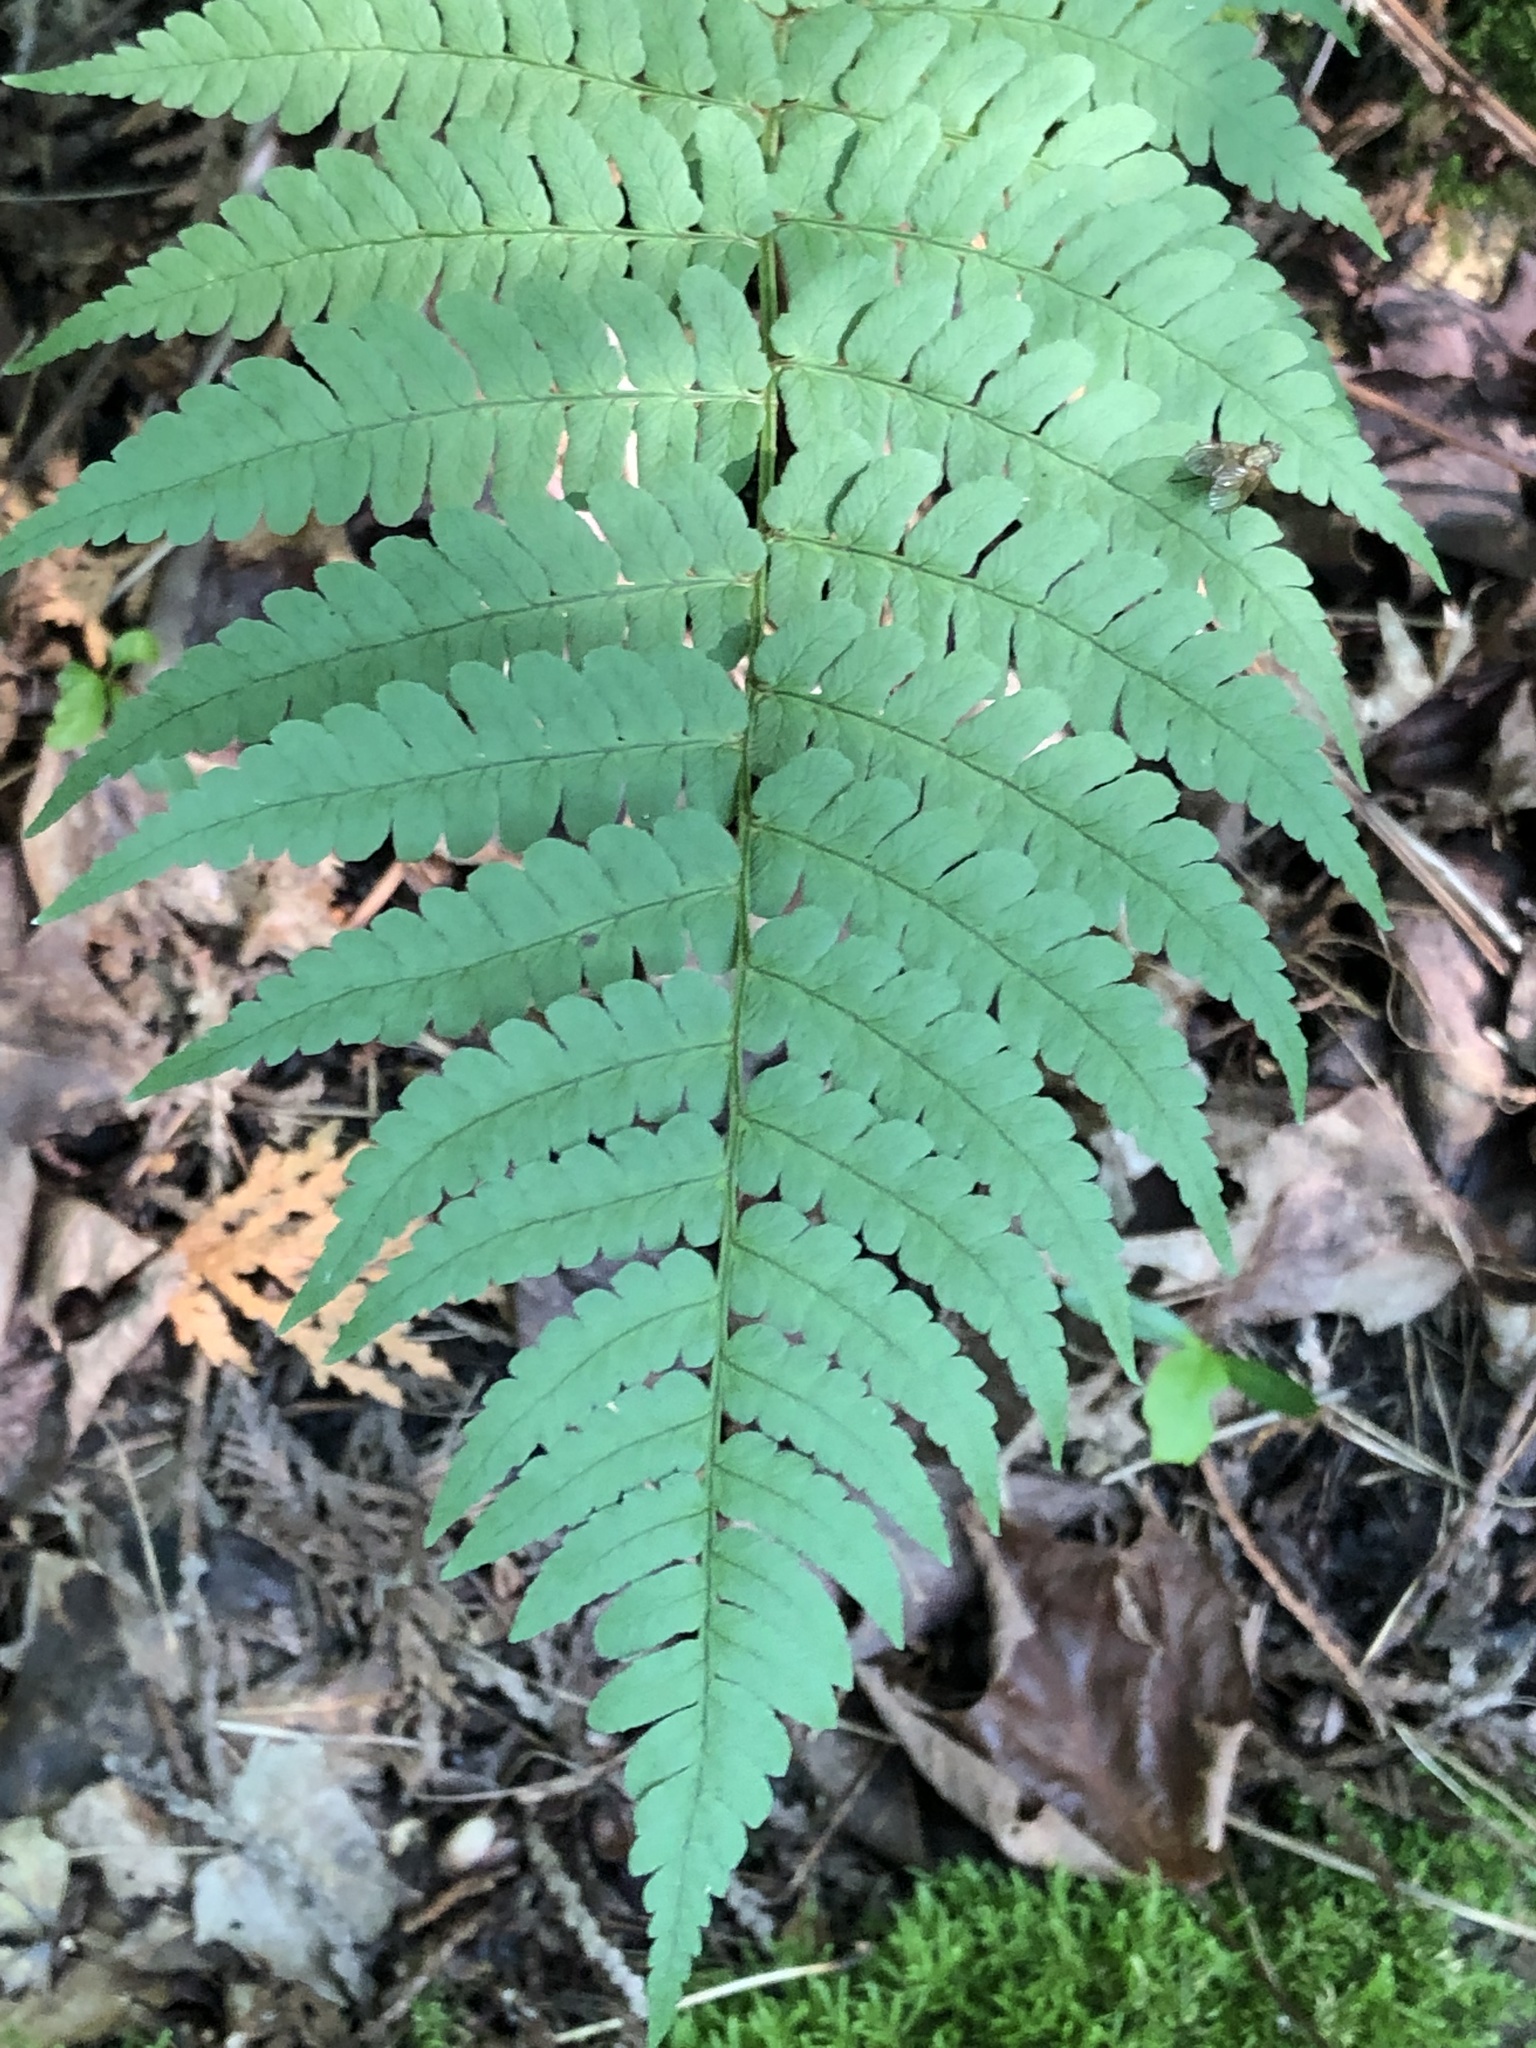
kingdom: Plantae
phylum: Tracheophyta
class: Polypodiopsida
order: Polypodiales
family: Dryopteridaceae
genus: Dryopteris
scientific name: Dryopteris marginalis
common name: Marginal wood fern
